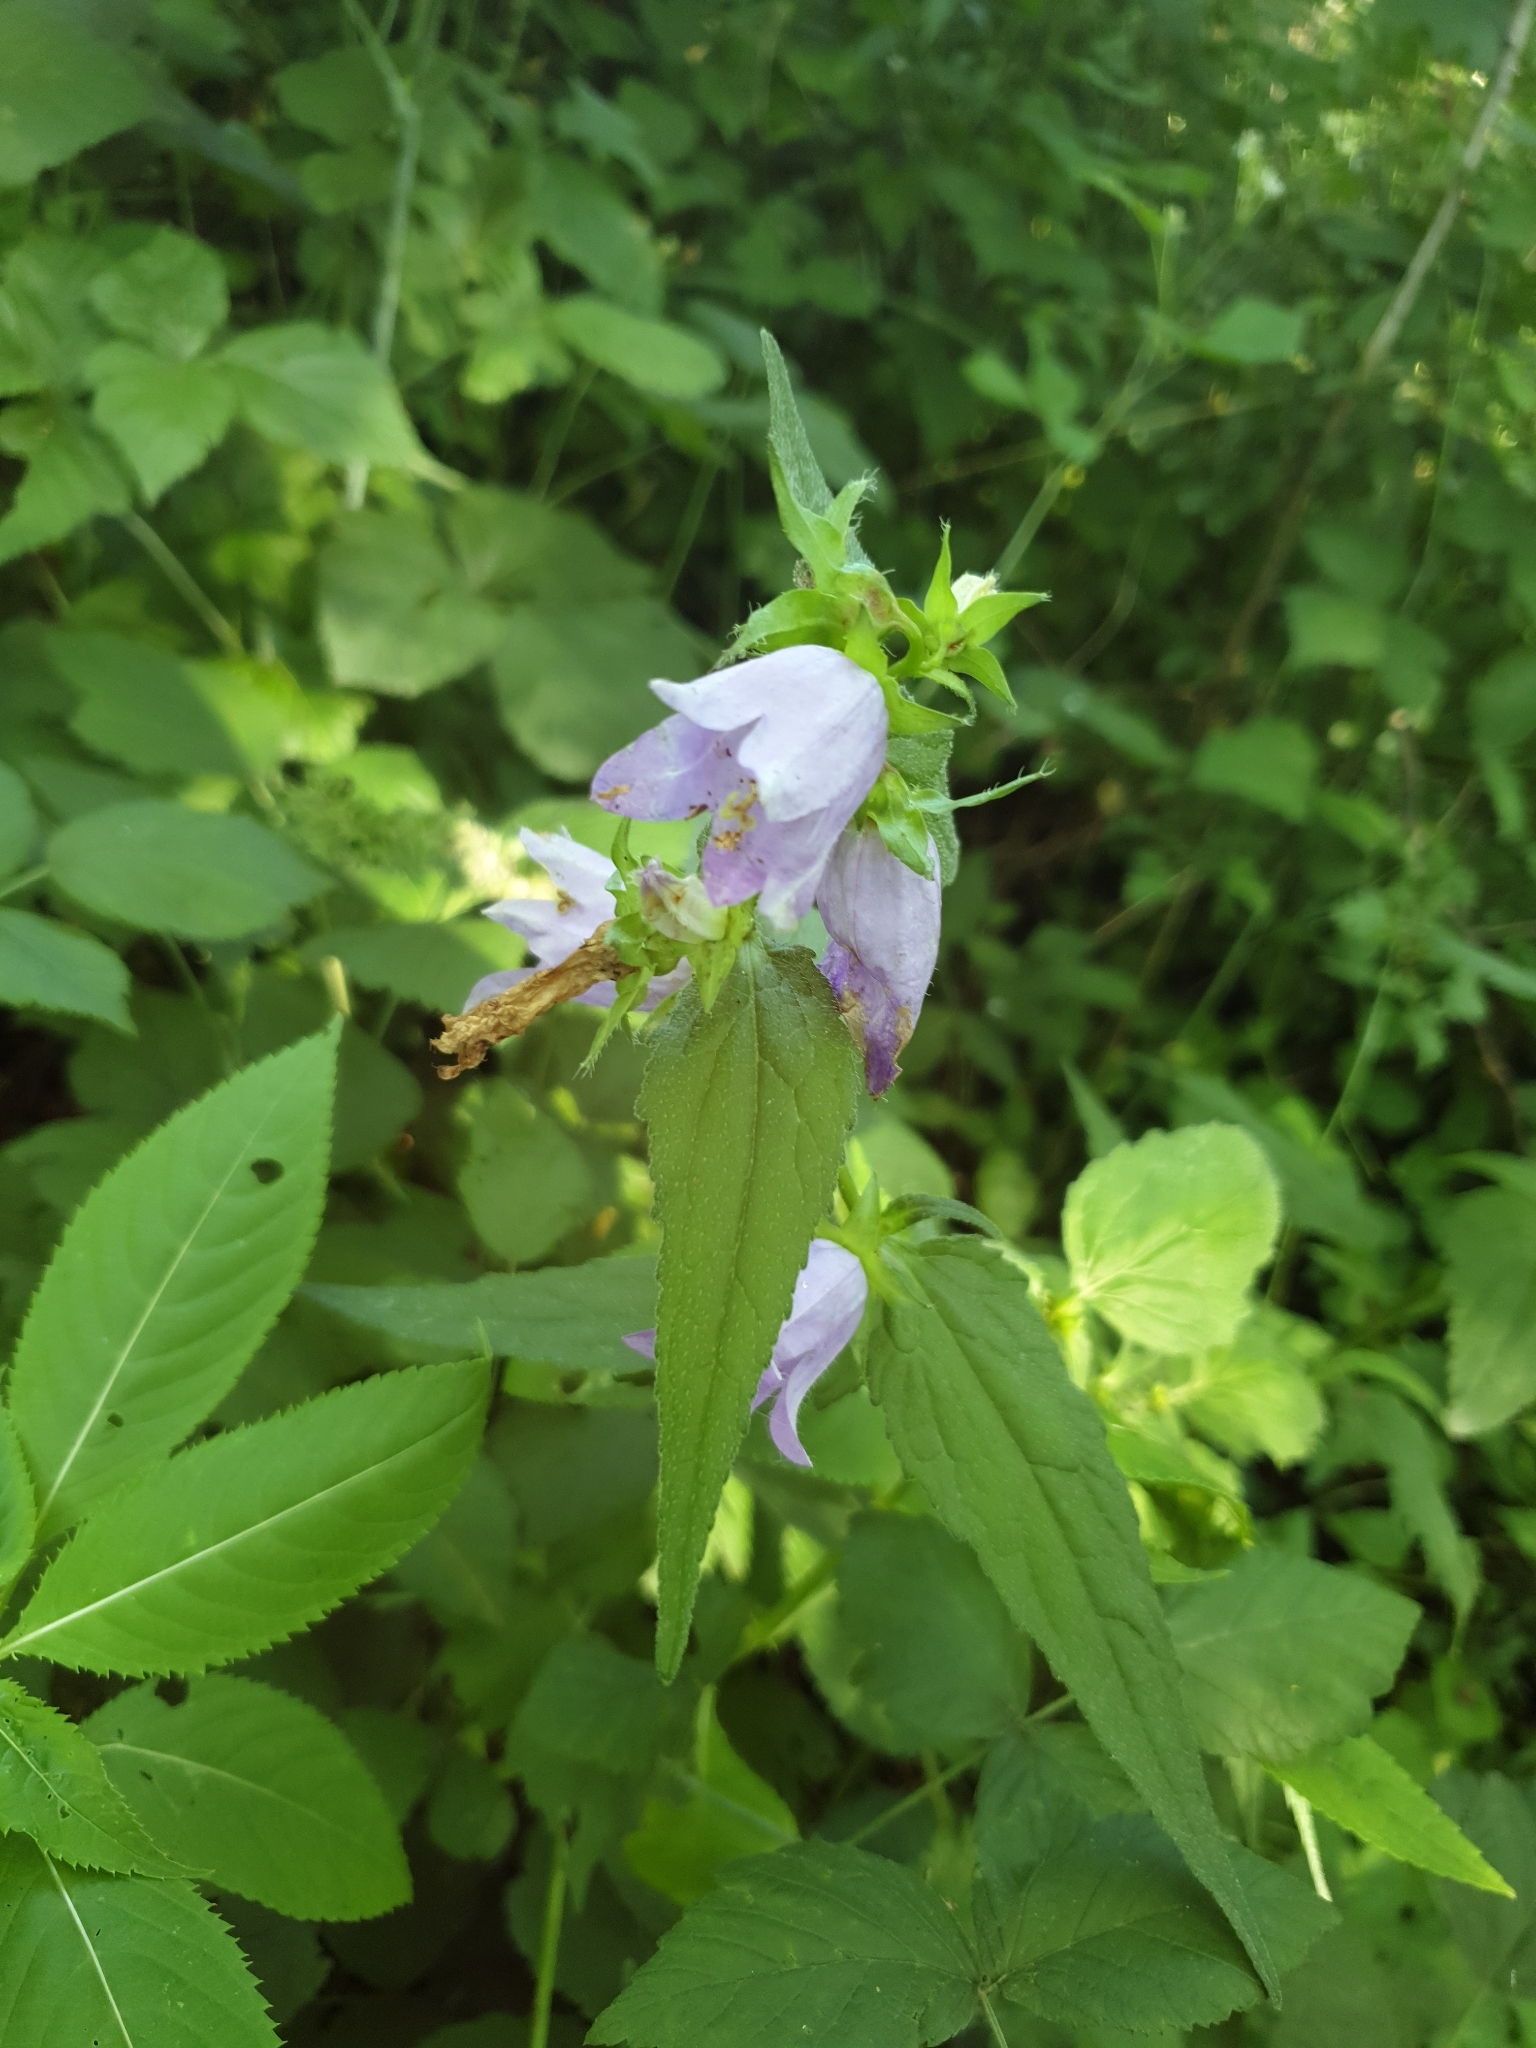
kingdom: Plantae
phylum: Tracheophyta
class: Magnoliopsida
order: Asterales
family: Campanulaceae
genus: Campanula
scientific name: Campanula trachelium
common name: Nettle-leaved bellflower
